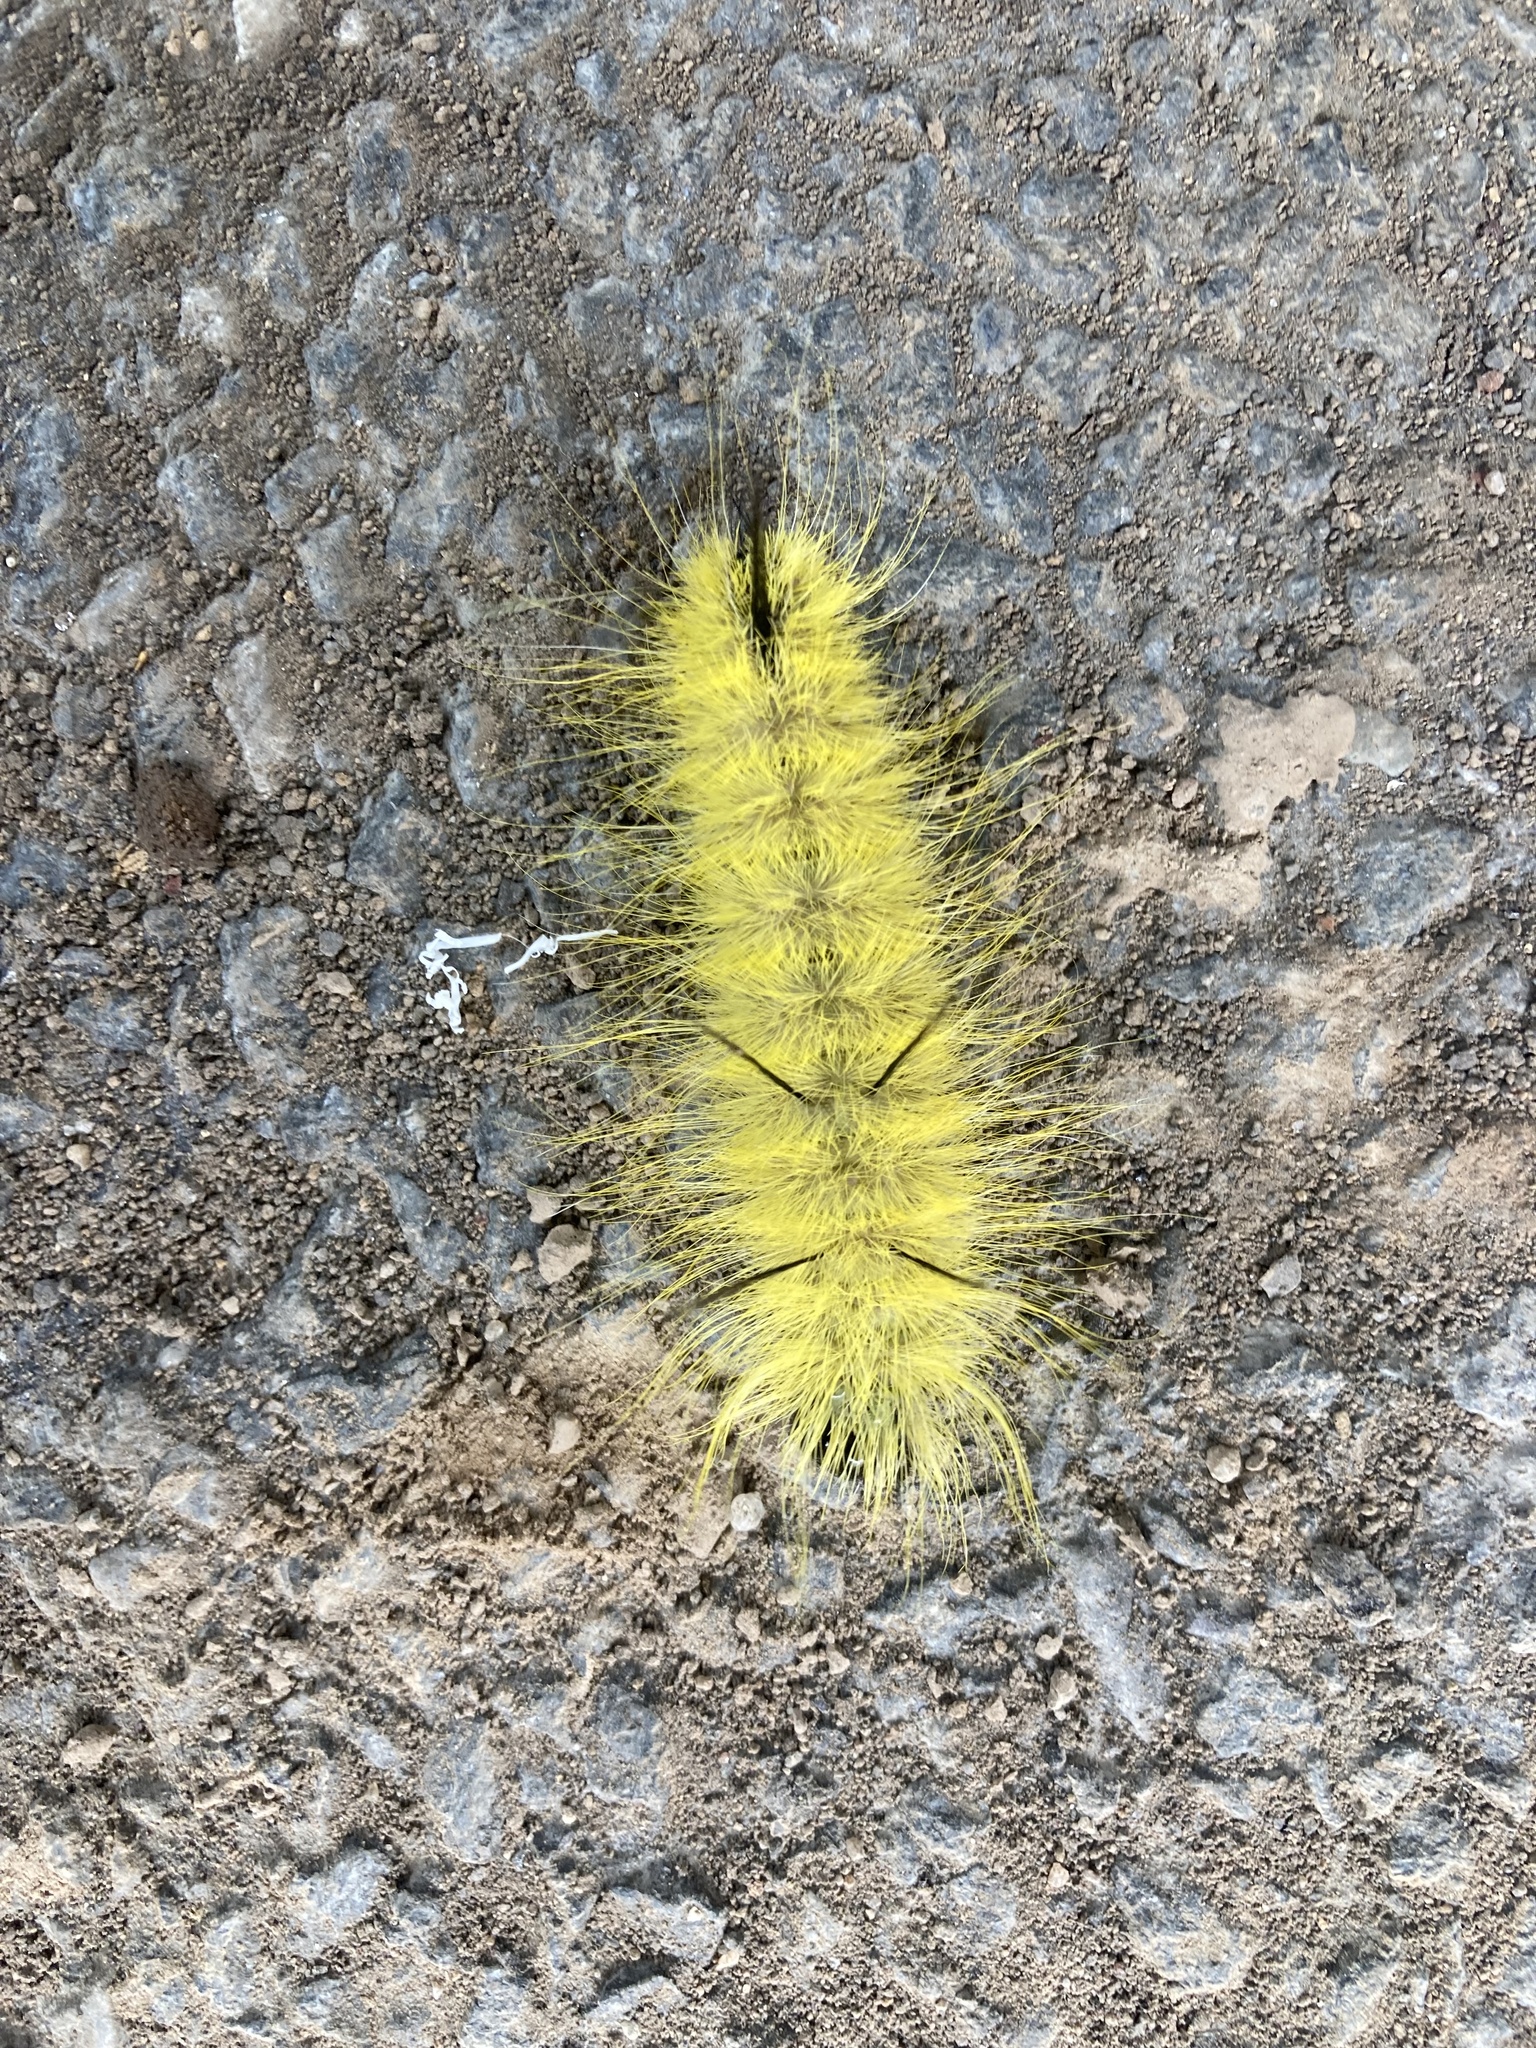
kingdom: Animalia
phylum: Arthropoda
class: Insecta
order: Lepidoptera
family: Noctuidae
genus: Acronicta
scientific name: Acronicta americana
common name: American dagger
